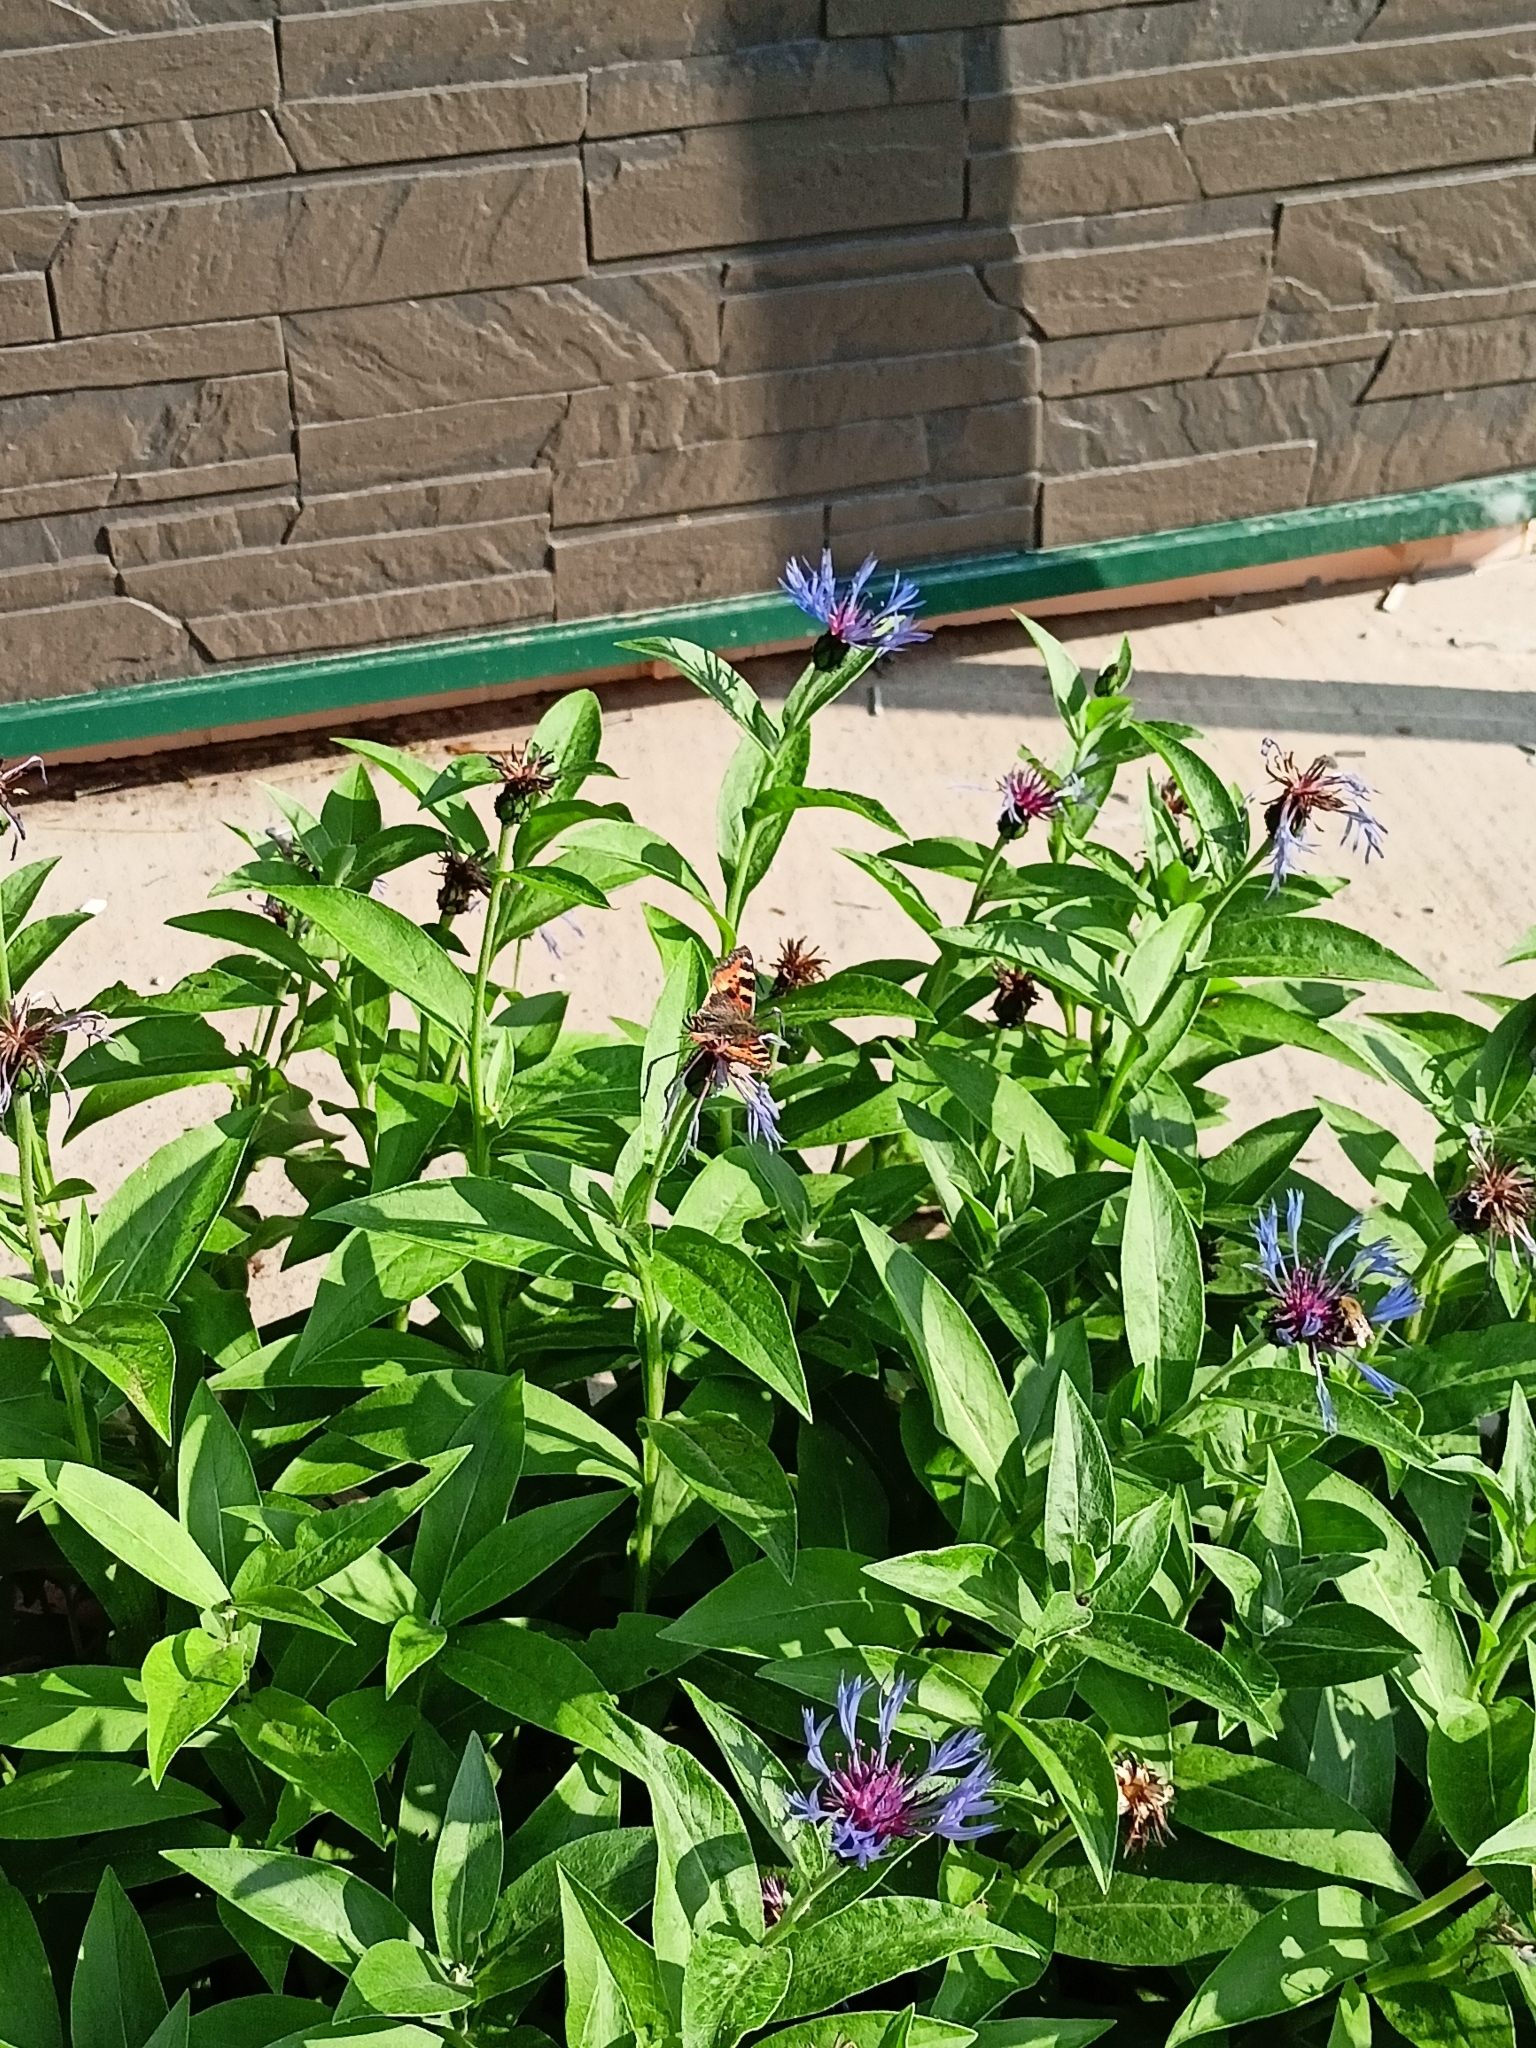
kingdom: Animalia
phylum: Arthropoda
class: Insecta
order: Lepidoptera
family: Nymphalidae
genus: Aglais
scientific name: Aglais urticae
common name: Small tortoiseshell
